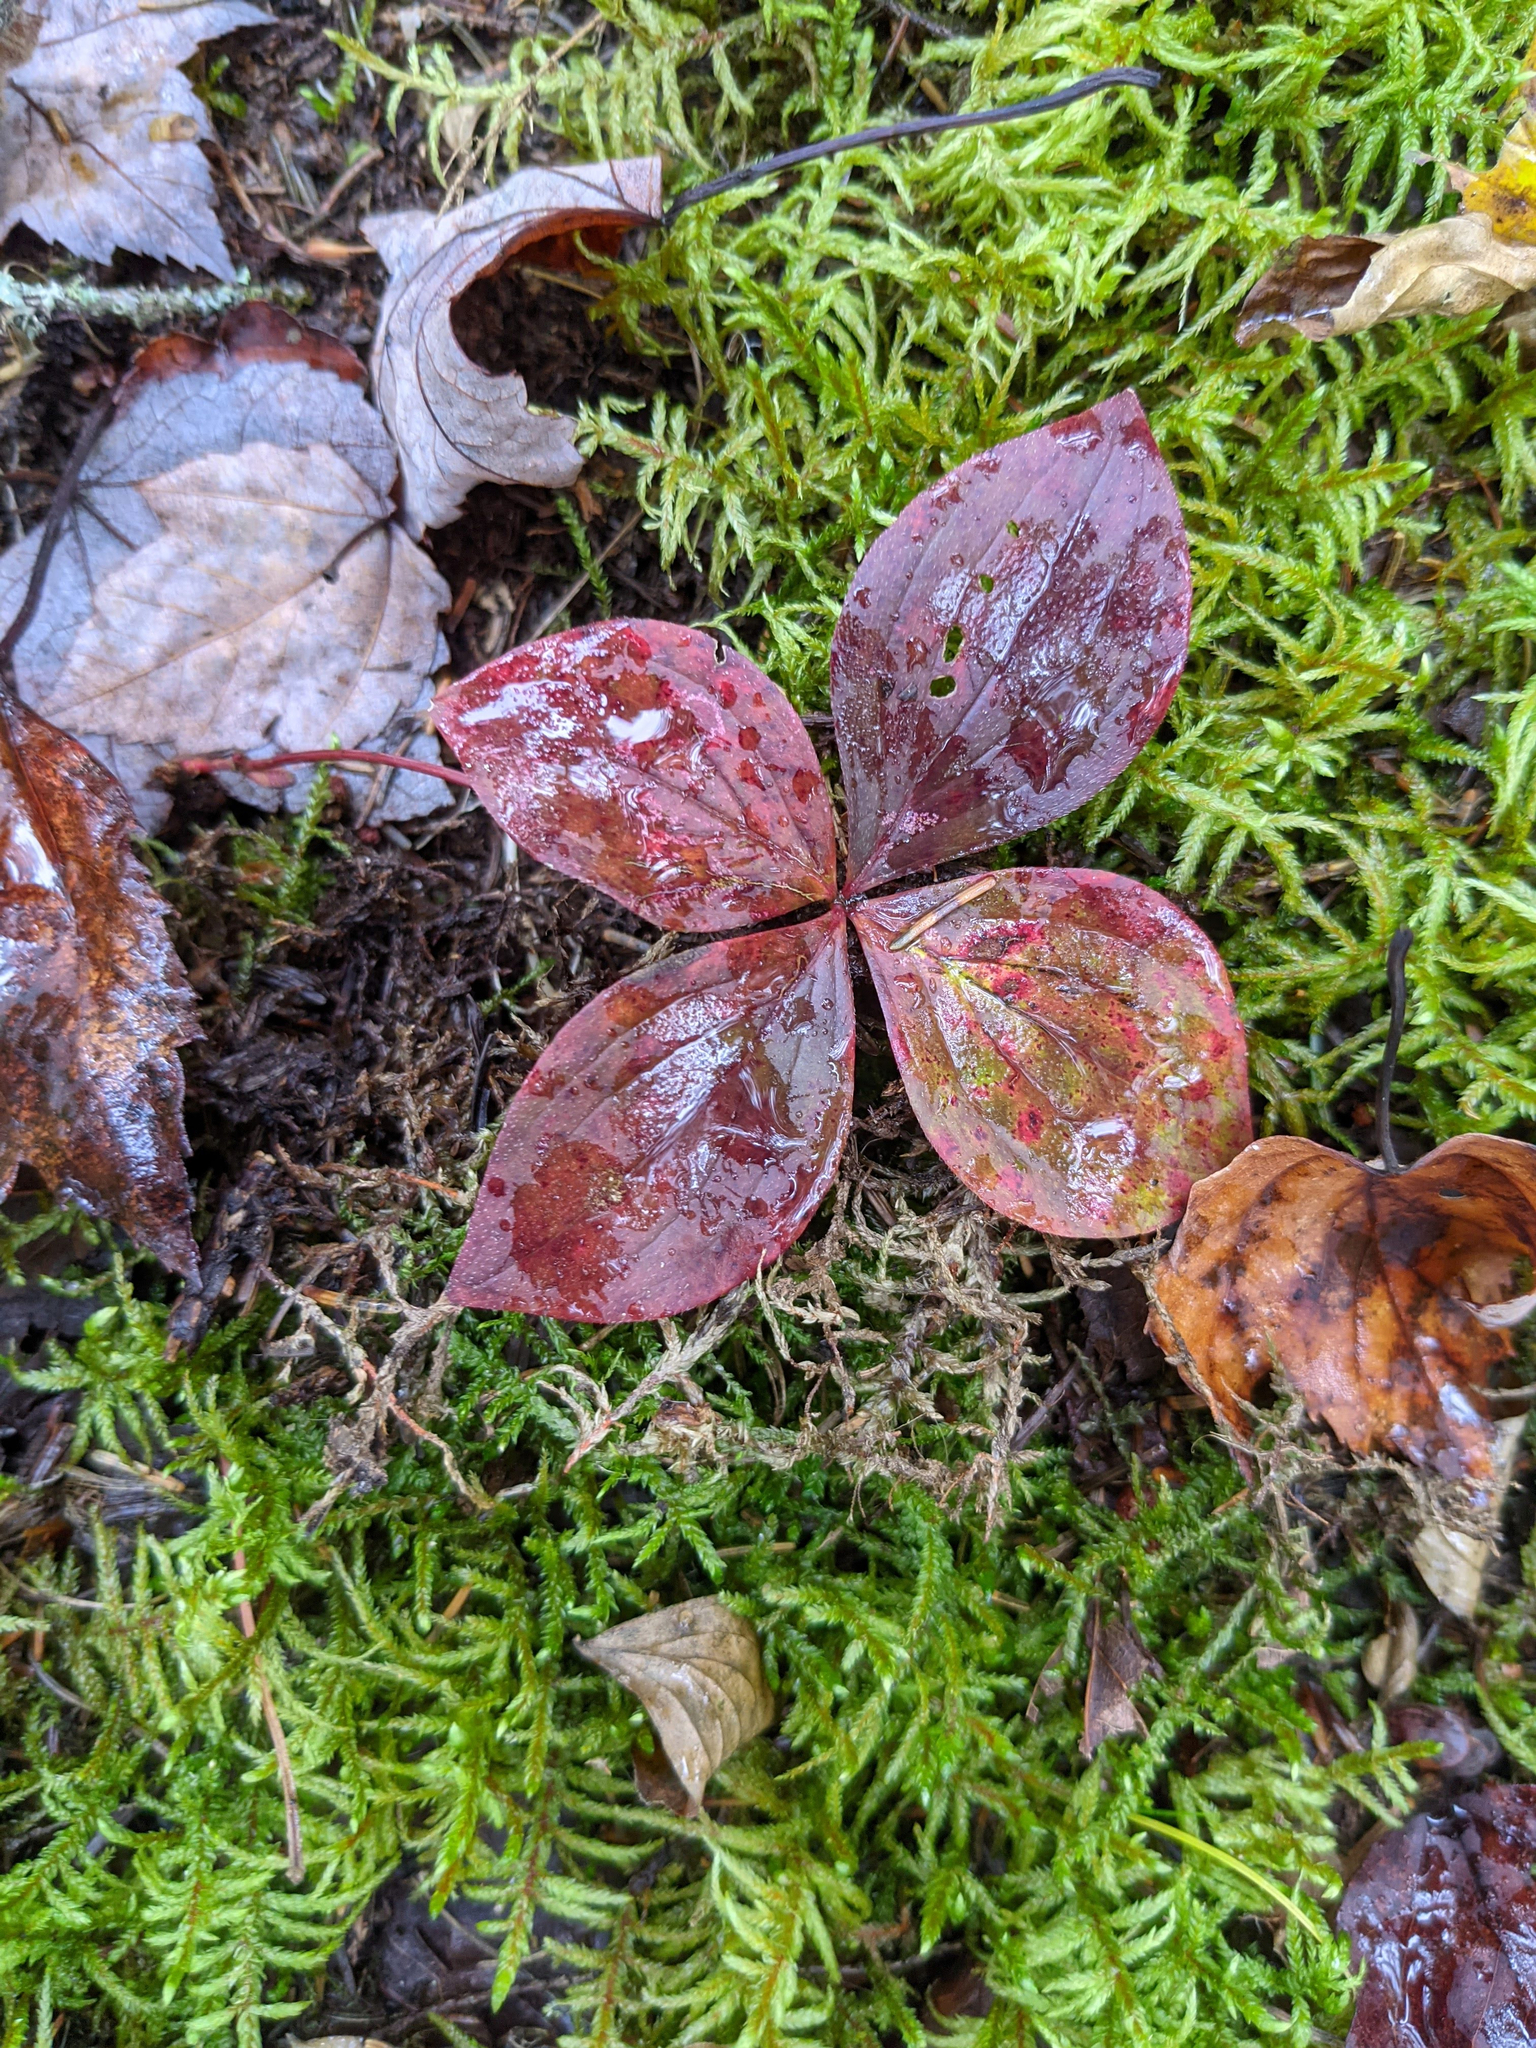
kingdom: Plantae
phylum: Tracheophyta
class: Magnoliopsida
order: Cornales
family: Cornaceae
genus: Cornus
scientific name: Cornus canadensis
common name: Creeping dogwood
